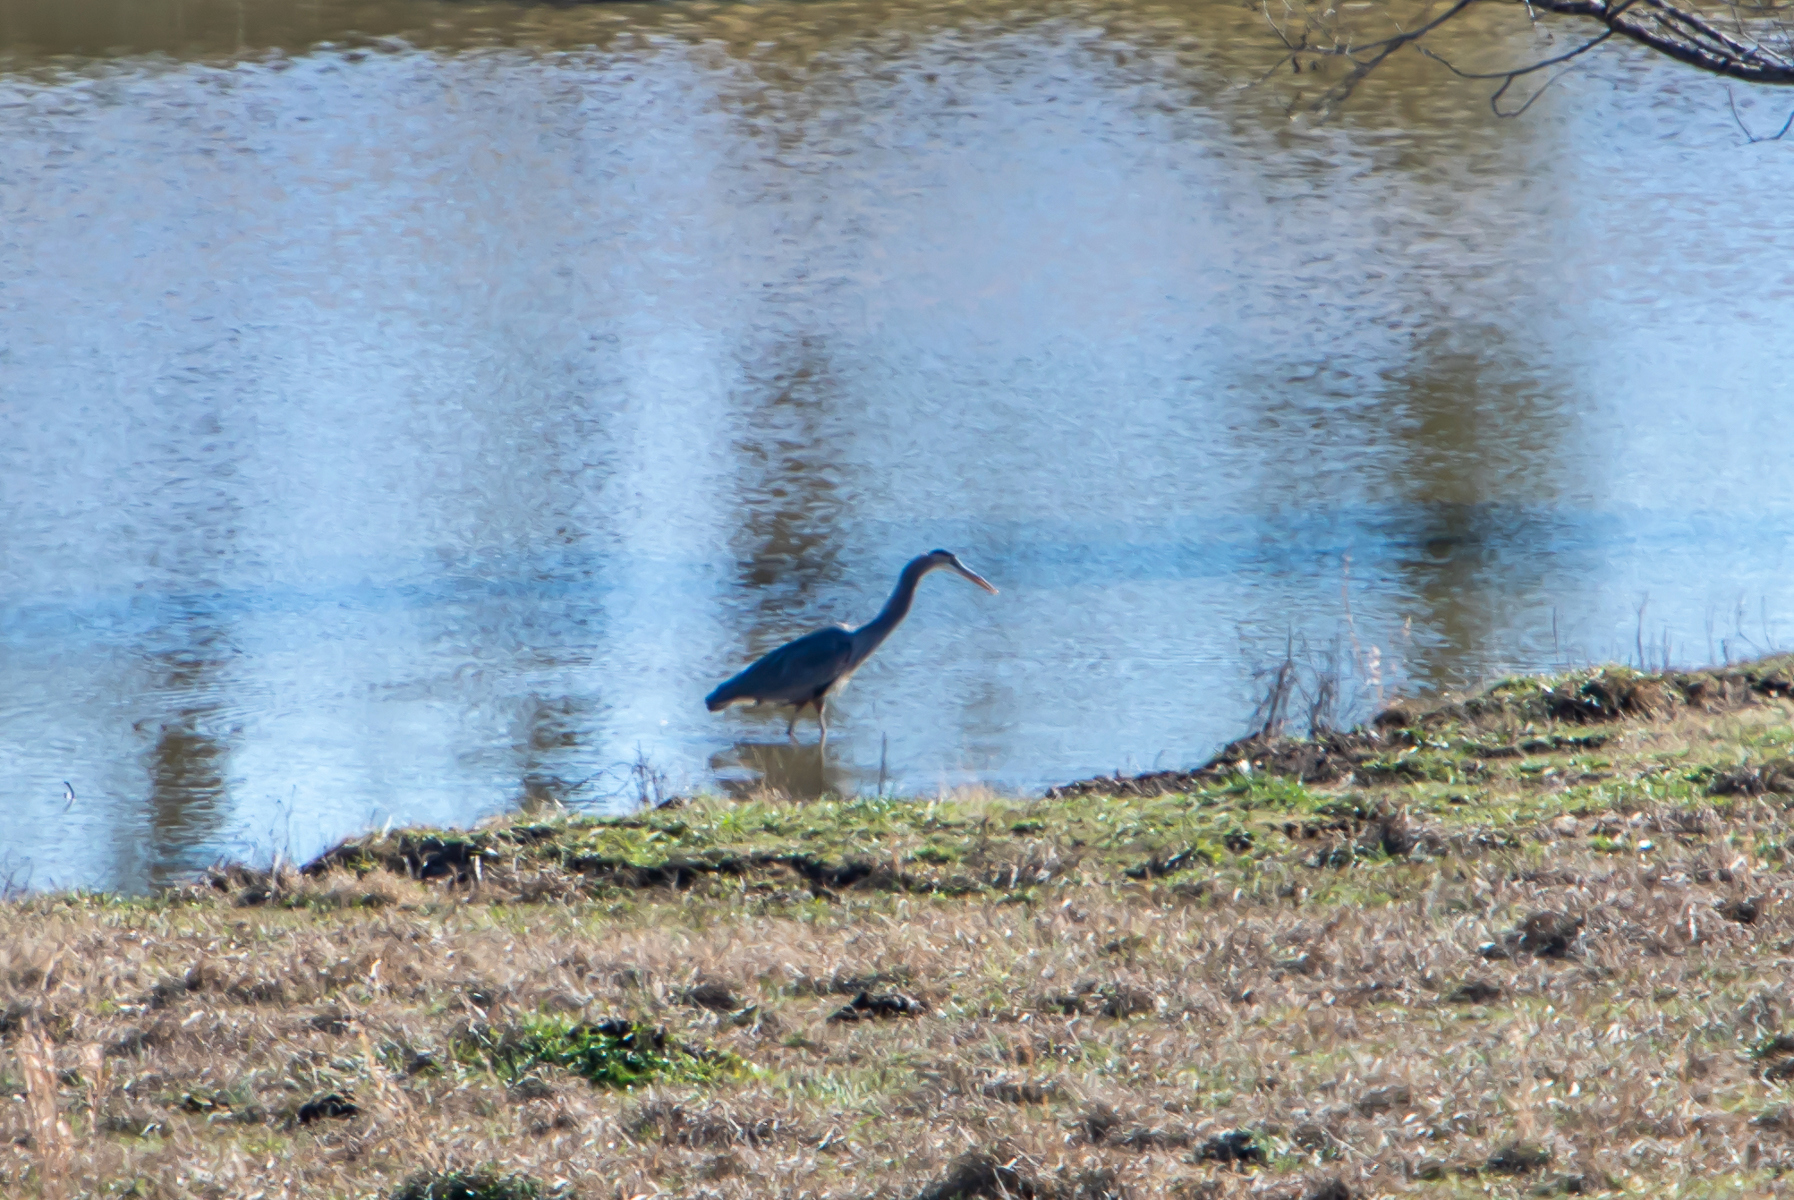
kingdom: Animalia
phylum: Chordata
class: Aves
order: Pelecaniformes
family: Ardeidae
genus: Ardea
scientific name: Ardea herodias
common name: Great blue heron
